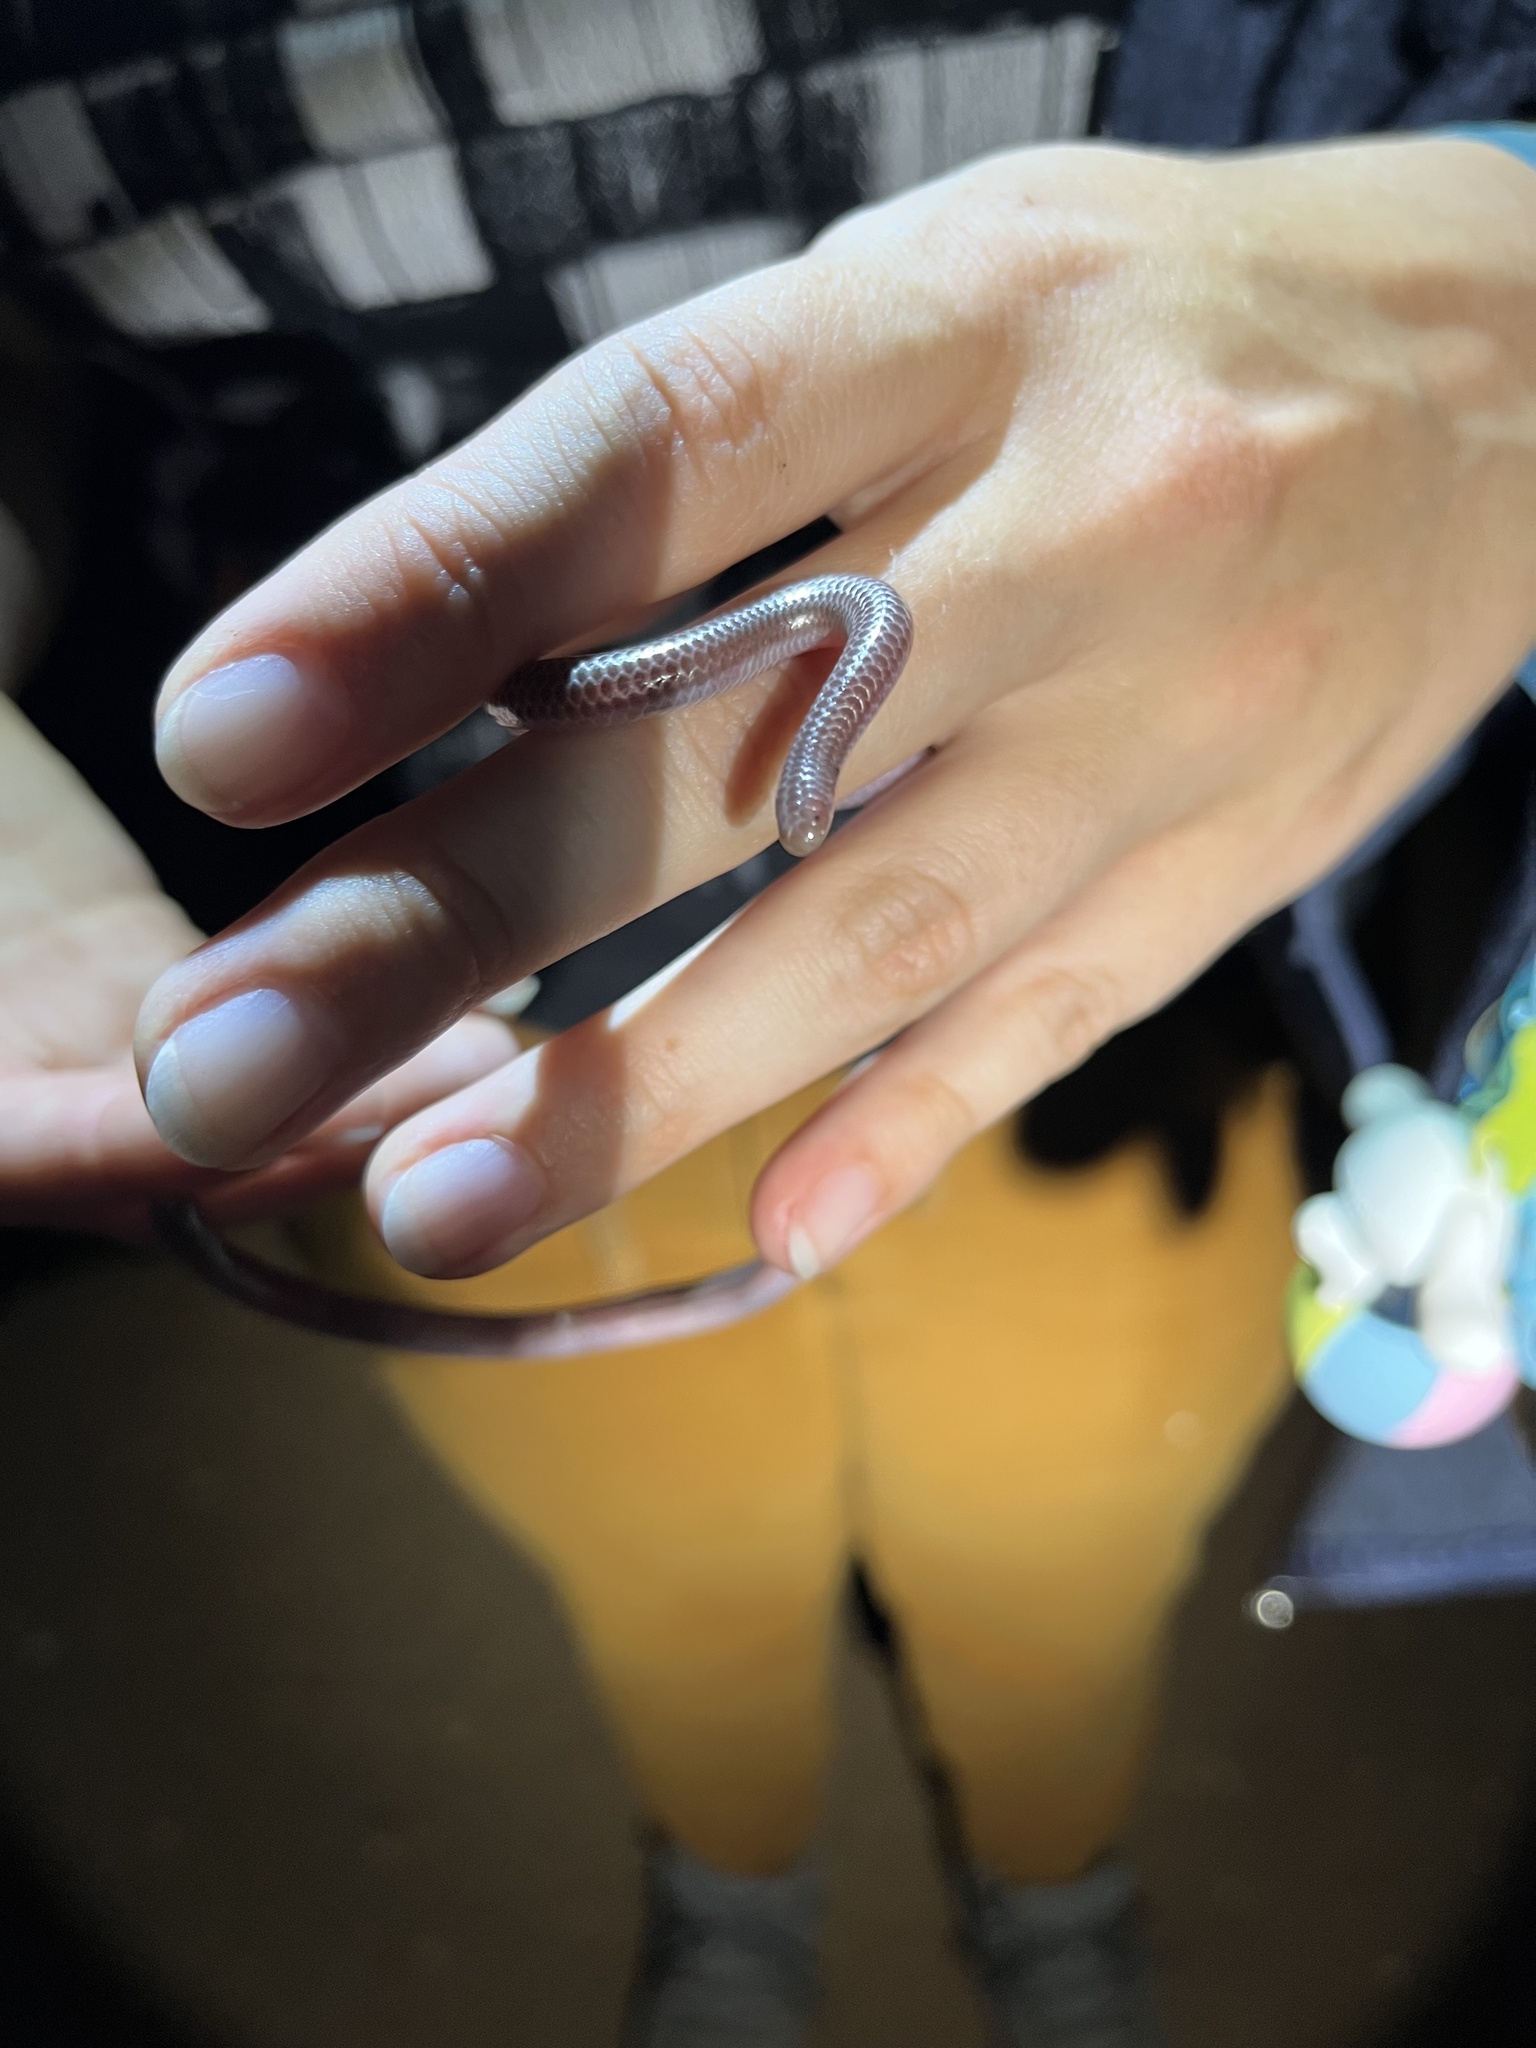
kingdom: Animalia
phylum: Chordata
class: Squamata
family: Leptotyphlopidae
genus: Rena
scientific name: Rena humilis
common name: Western threadsnake
